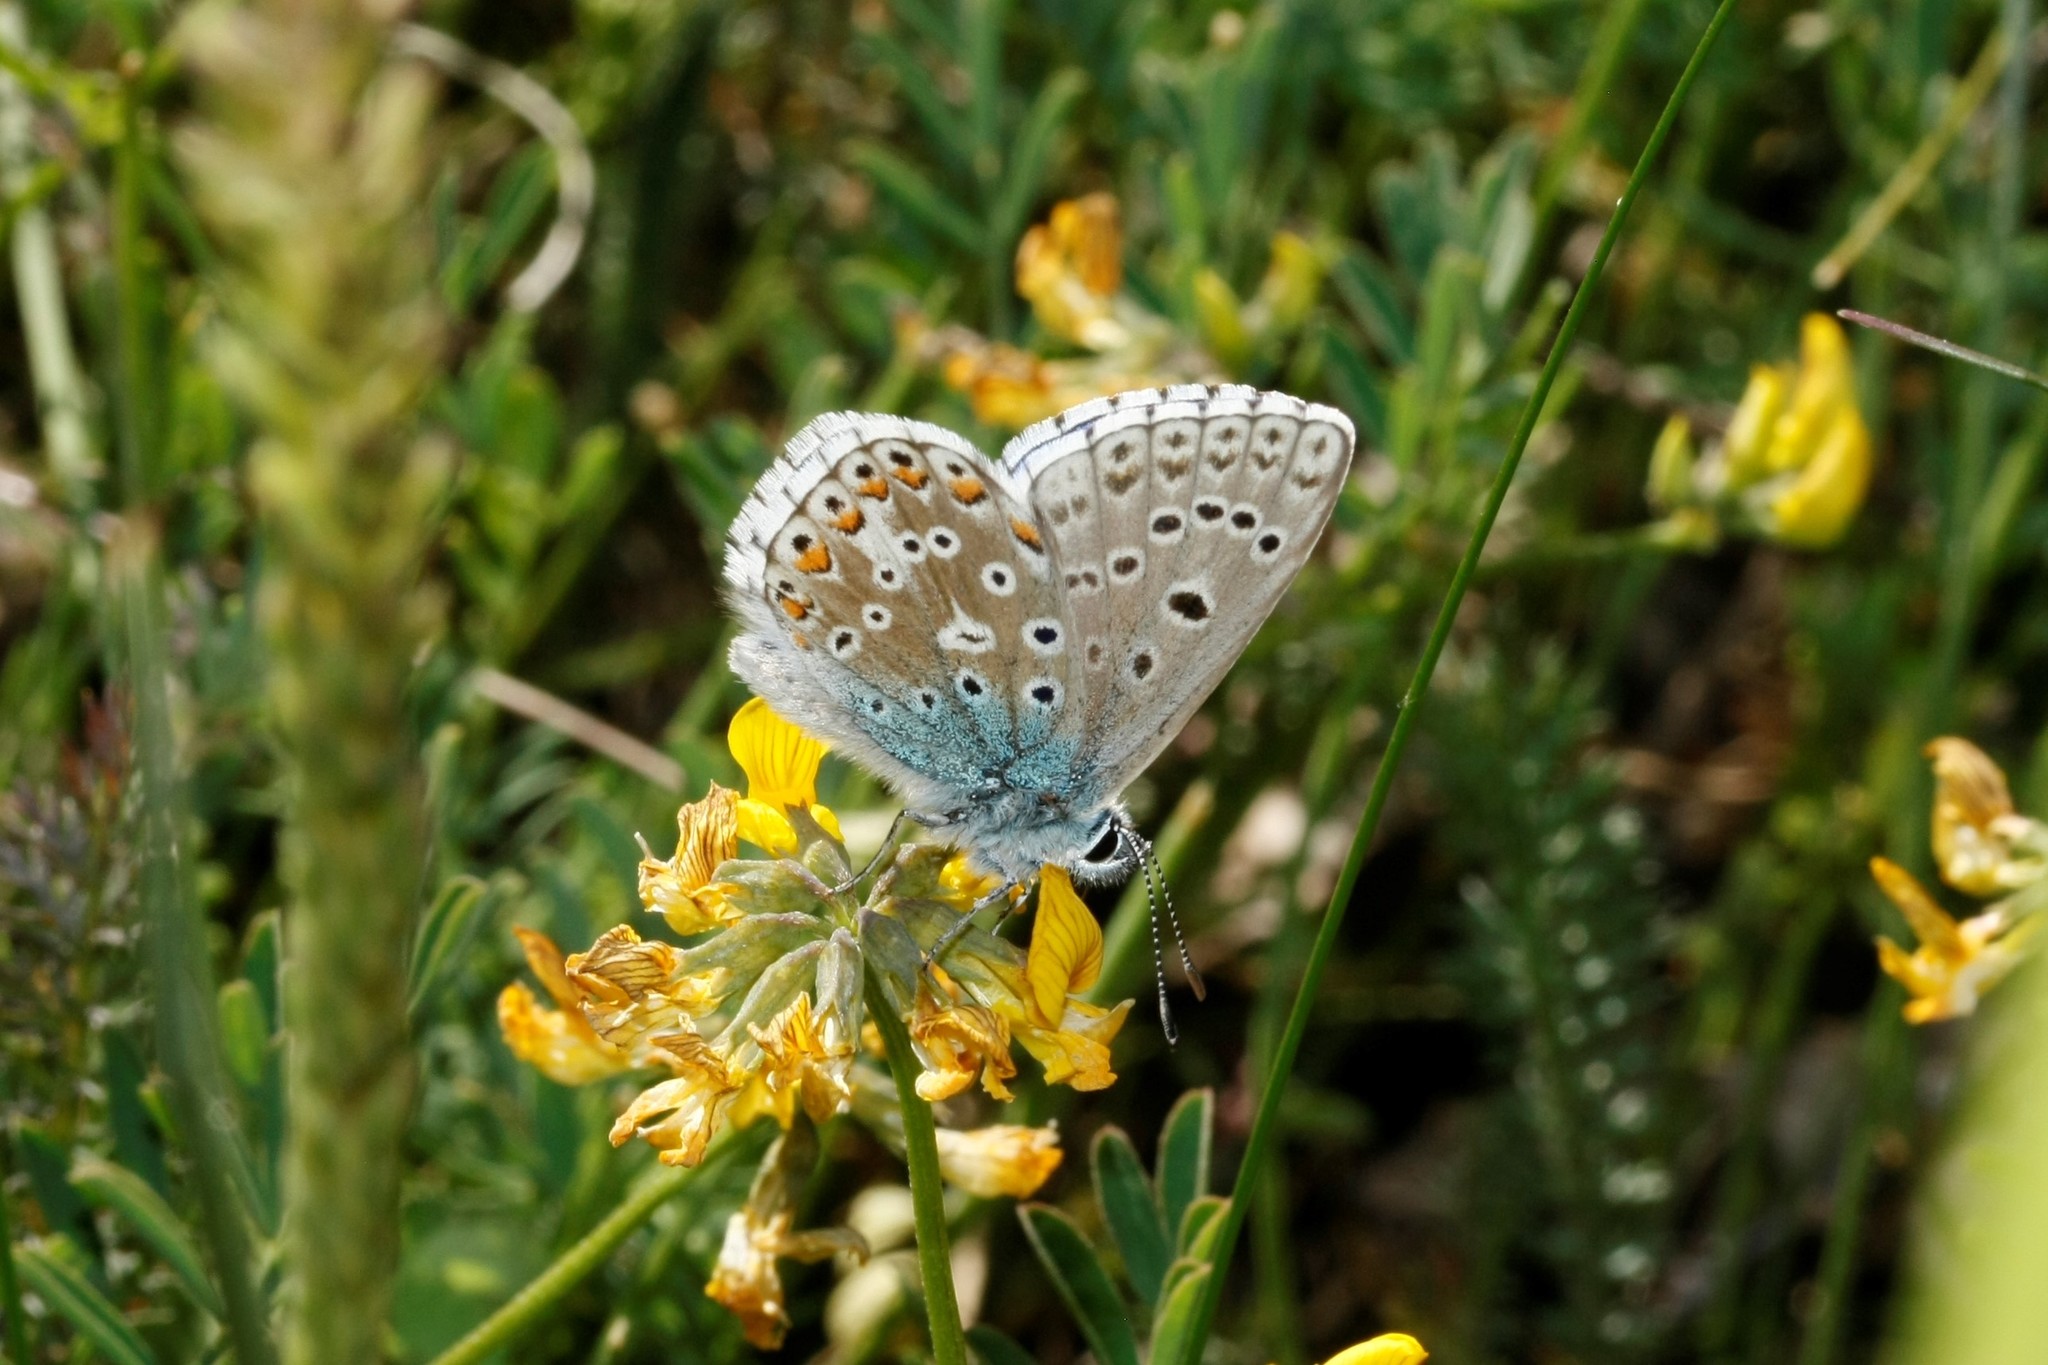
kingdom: Animalia
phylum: Arthropoda
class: Insecta
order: Lepidoptera
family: Lycaenidae
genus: Lysandra
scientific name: Lysandra bellargus
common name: Adonis blue
